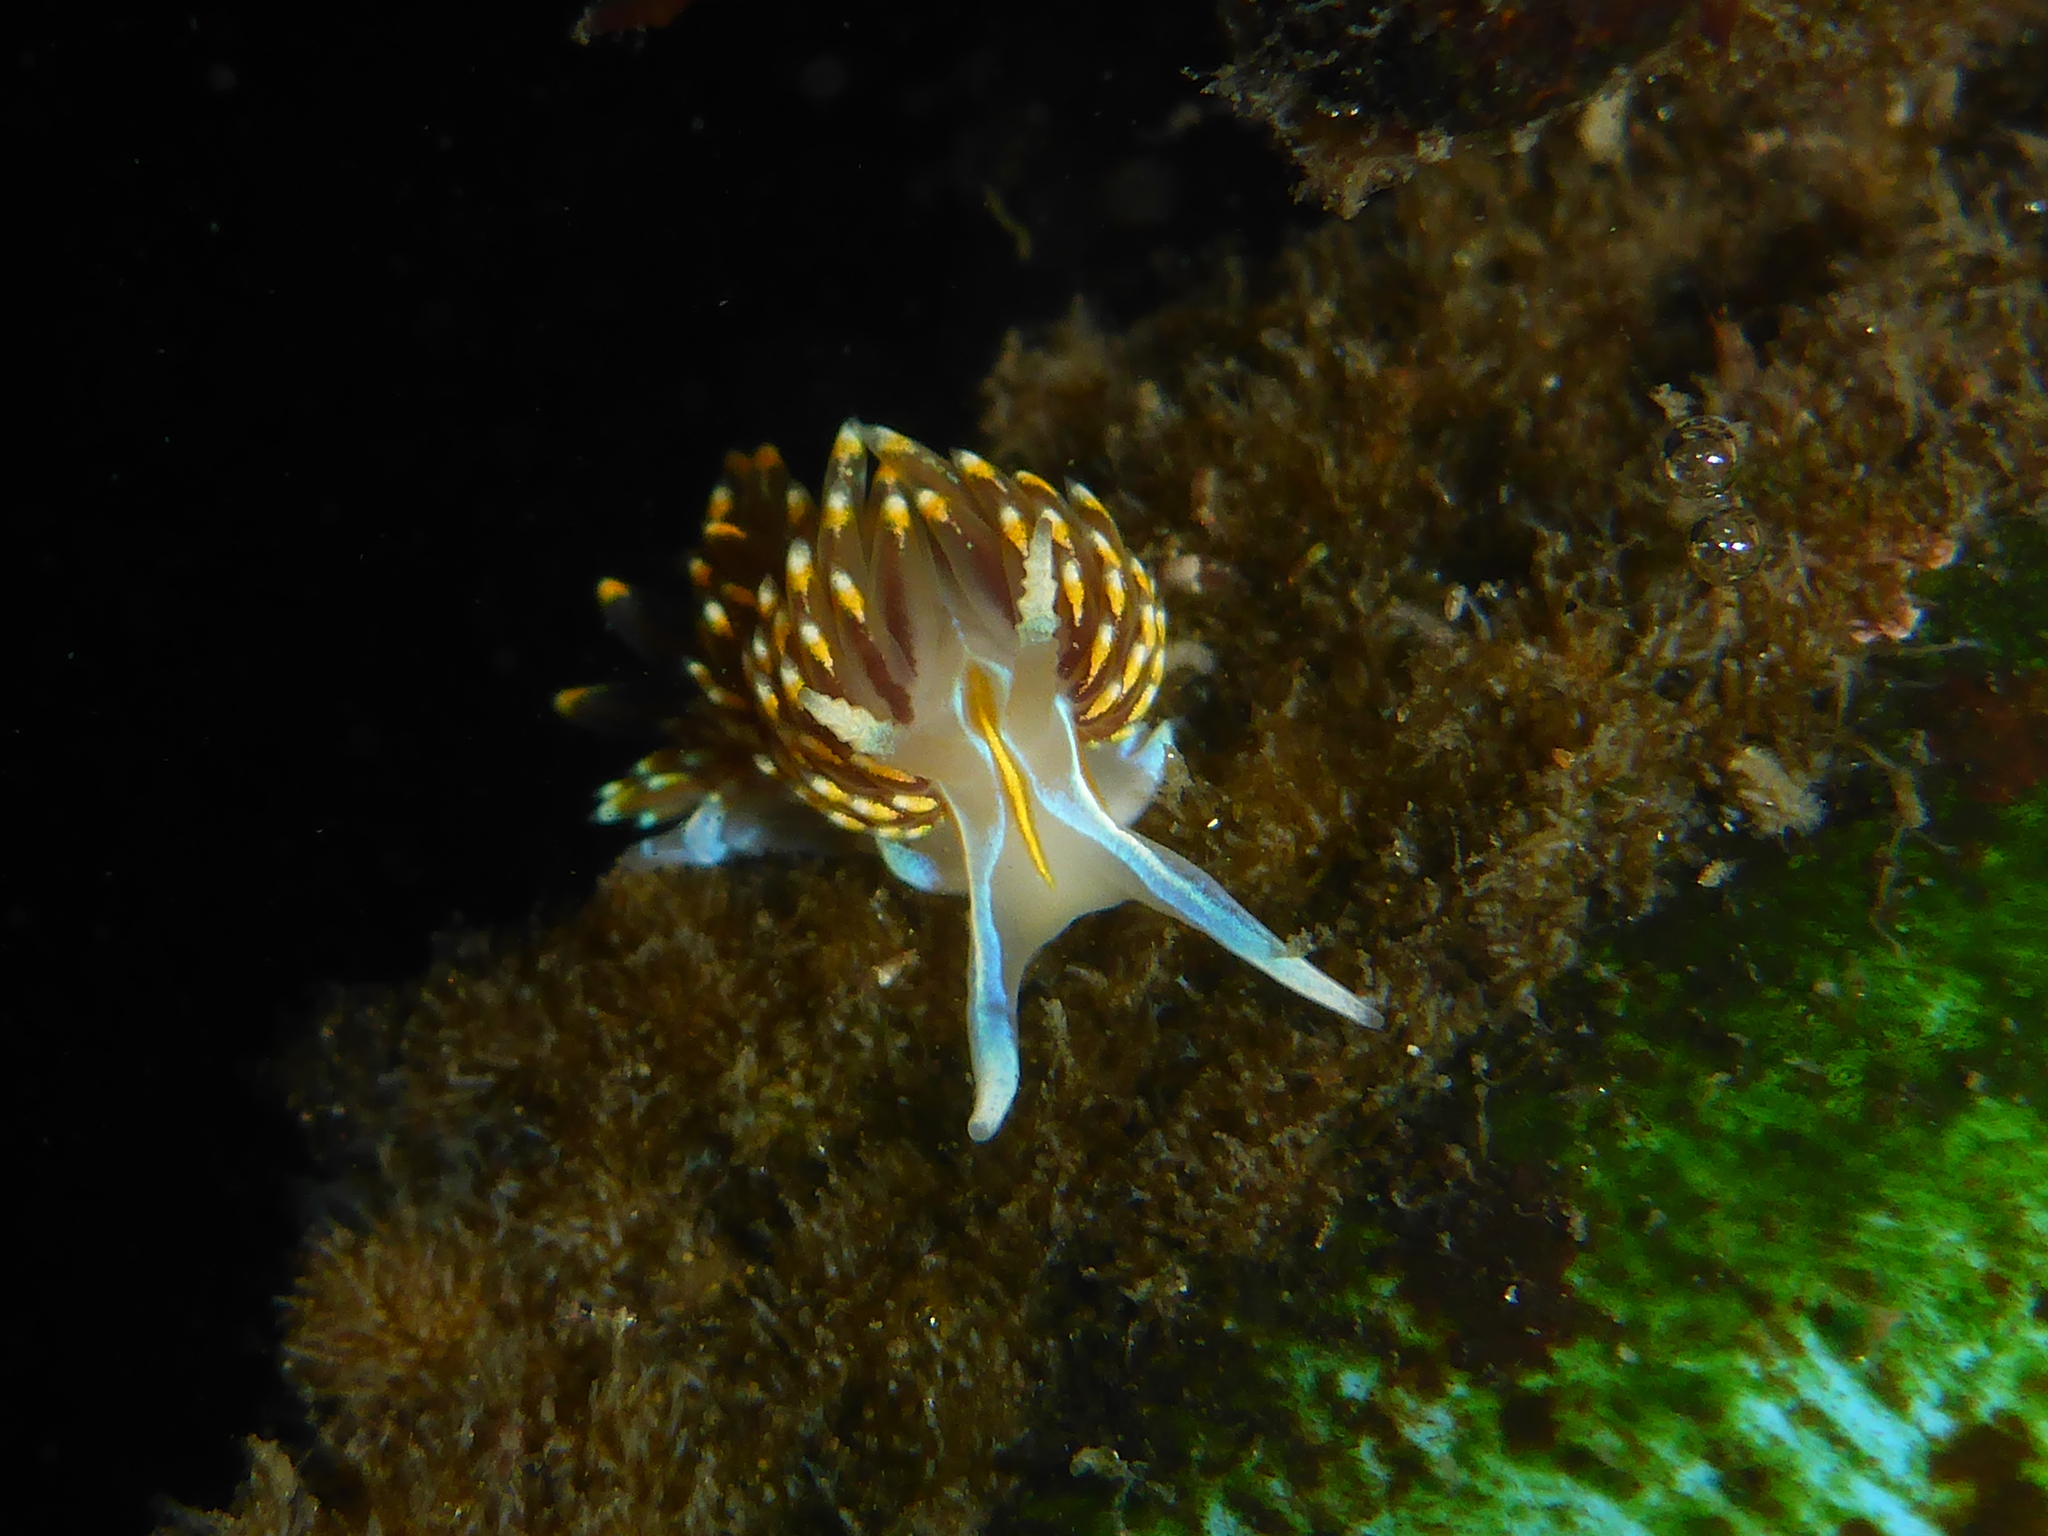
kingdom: Animalia
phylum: Mollusca
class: Gastropoda
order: Nudibranchia
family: Myrrhinidae
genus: Hermissenda
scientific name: Hermissenda opalescens
